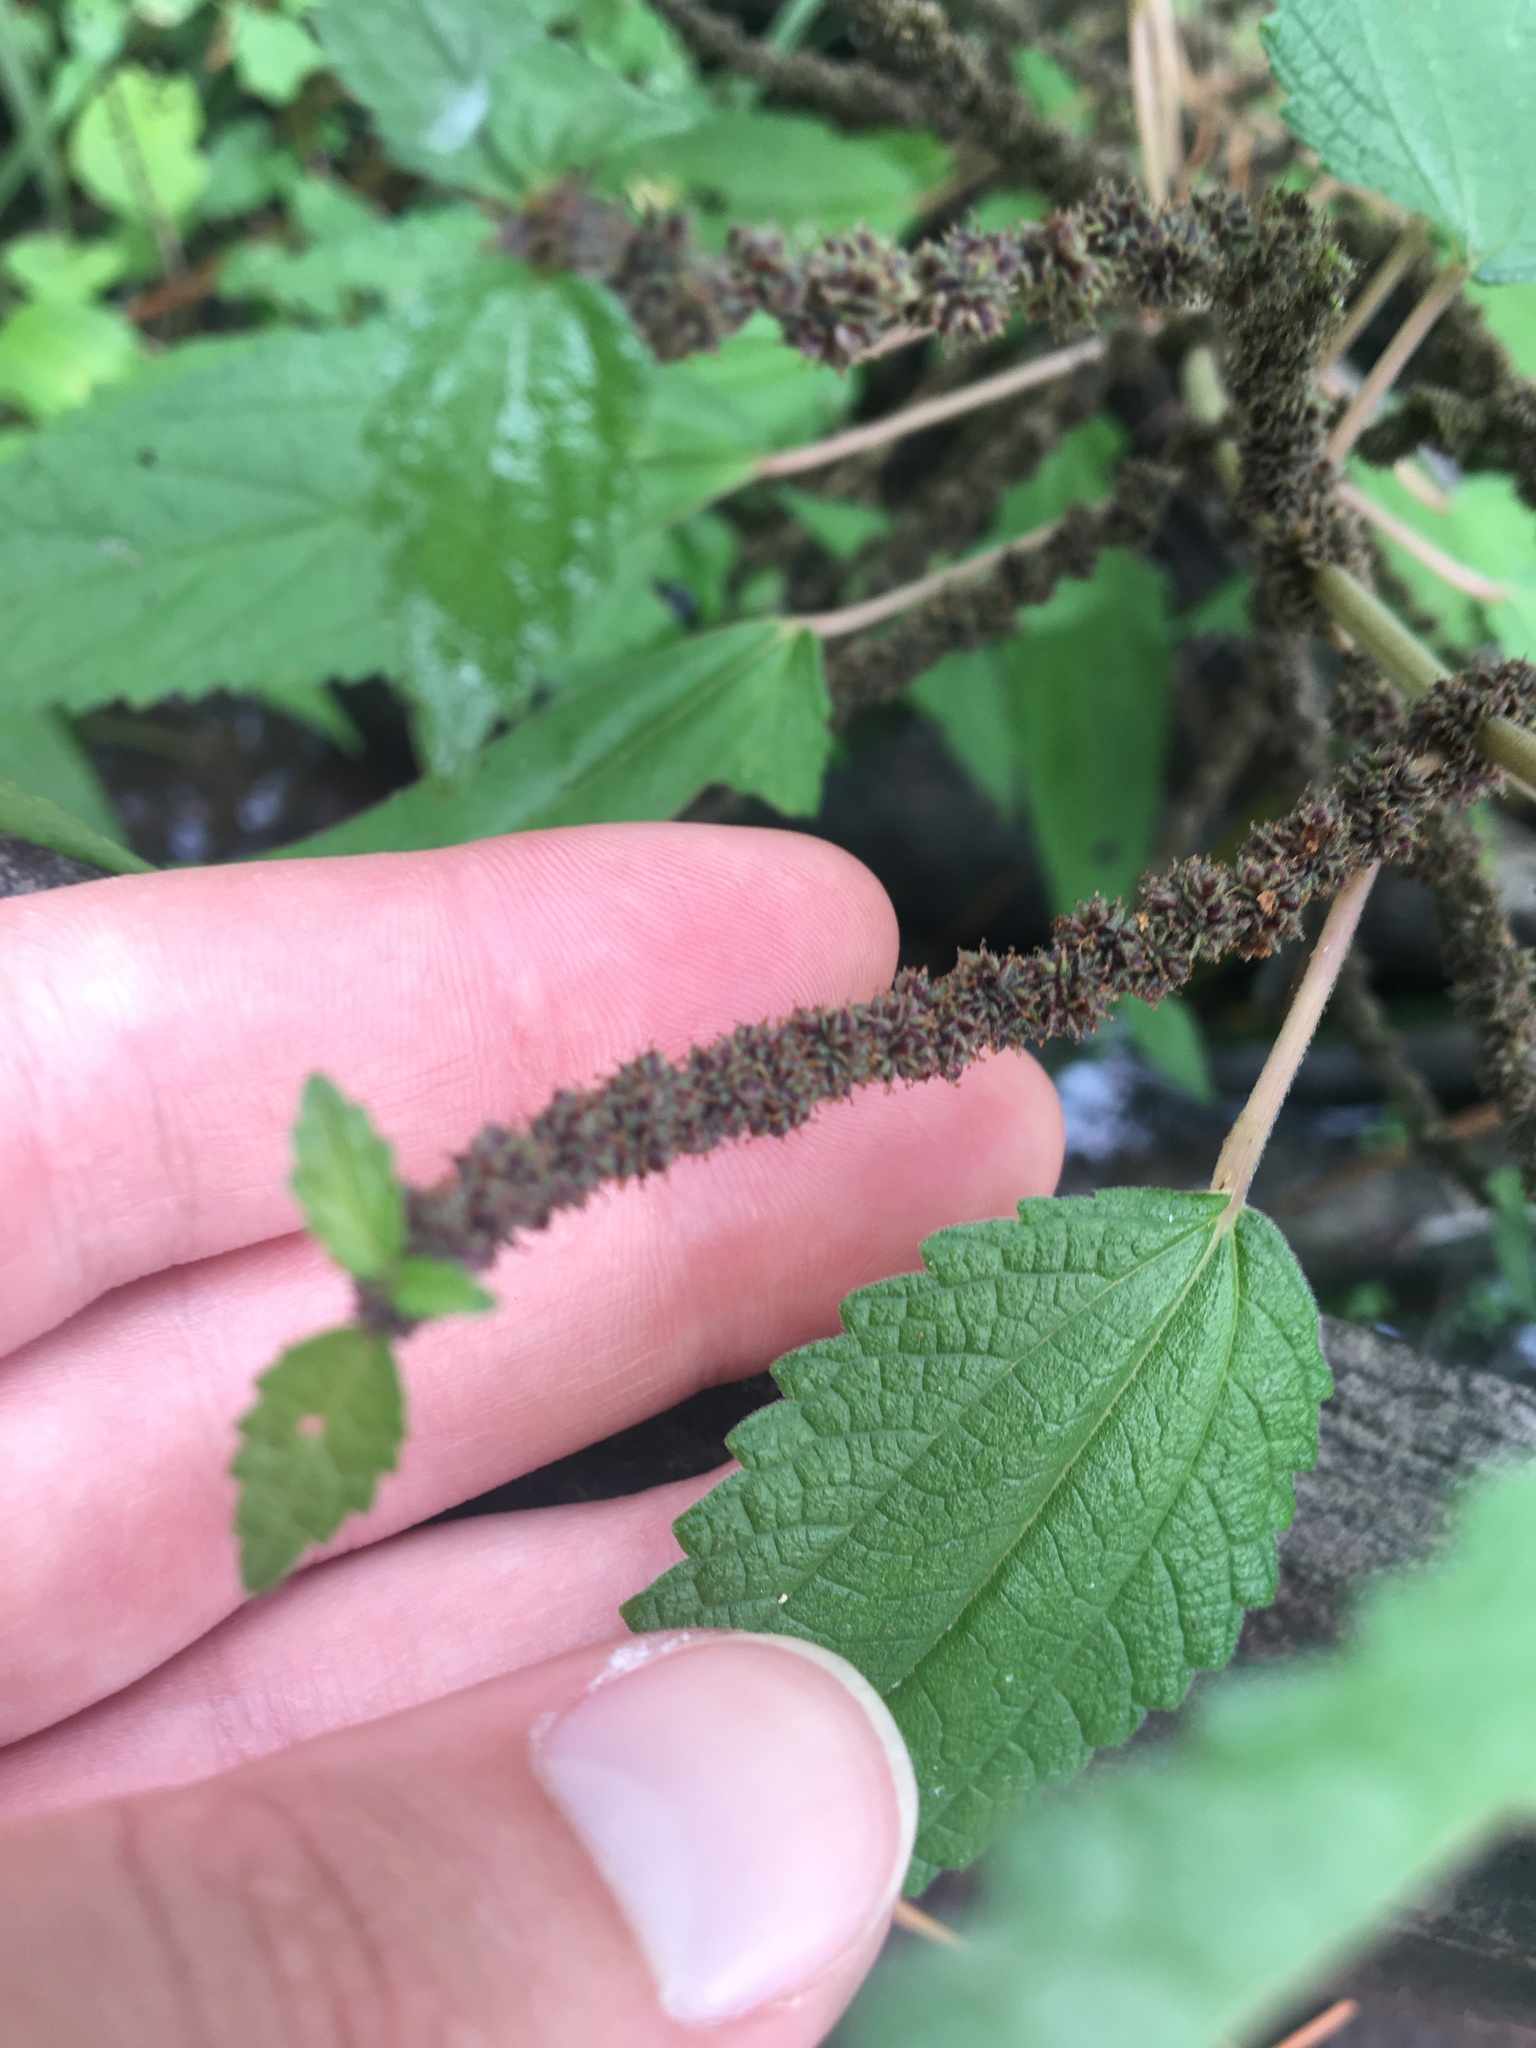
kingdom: Plantae
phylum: Tracheophyta
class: Magnoliopsida
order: Rosales
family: Urticaceae
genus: Boehmeria
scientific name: Boehmeria cylindrica
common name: Bog-hemp
